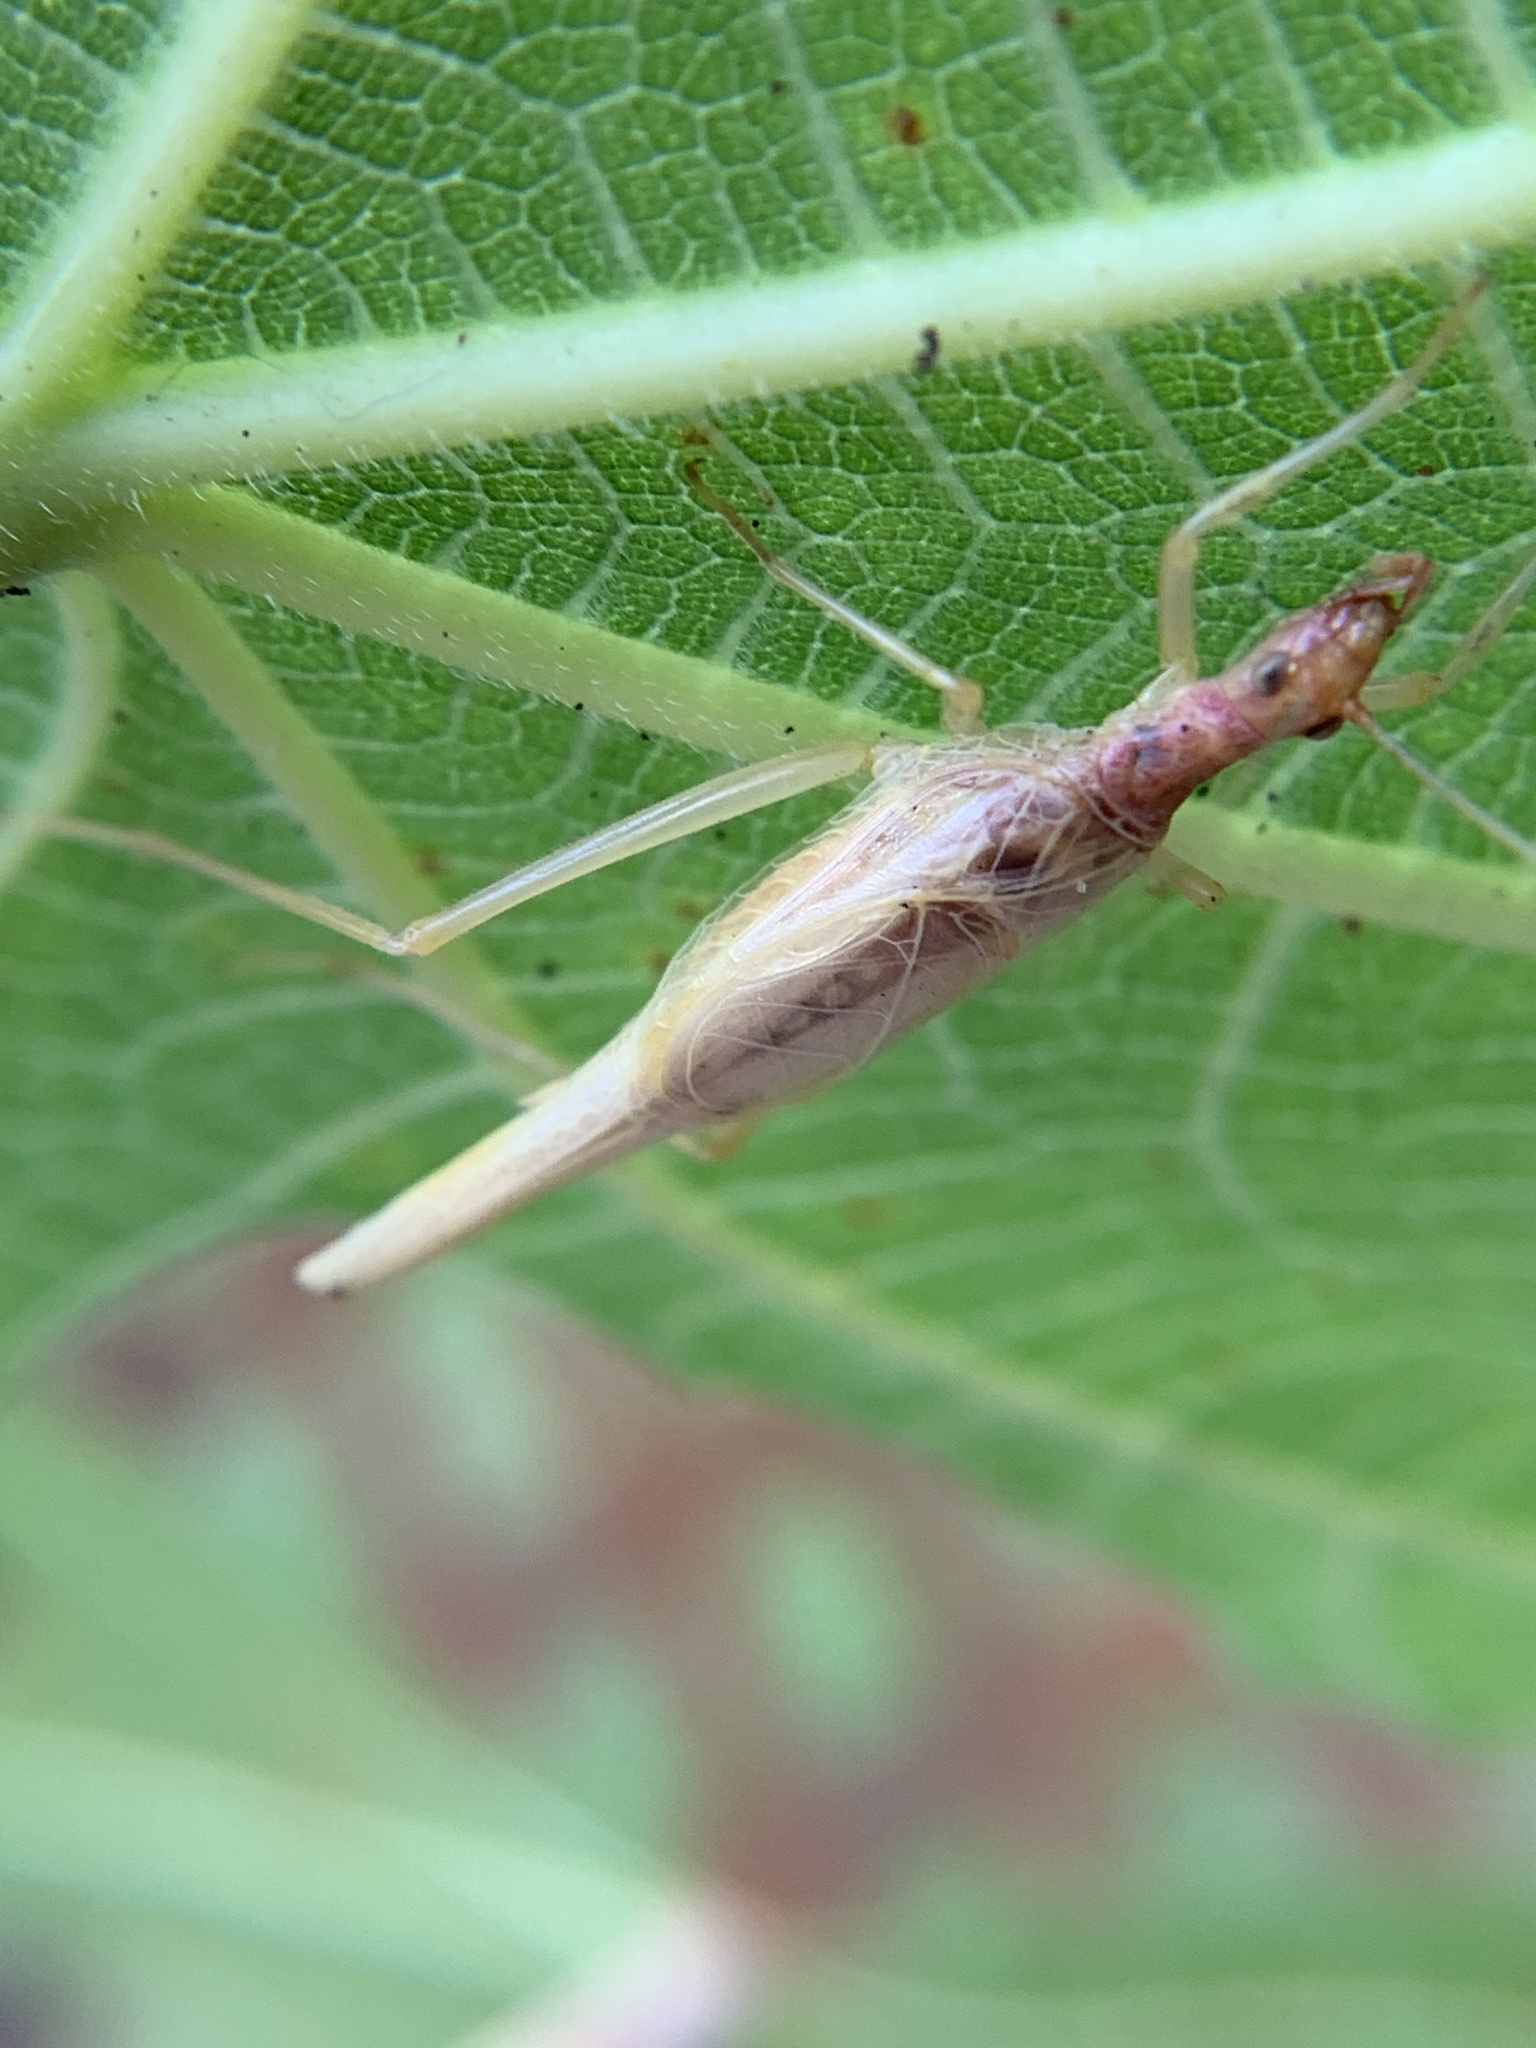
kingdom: Animalia
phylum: Arthropoda
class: Insecta
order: Orthoptera
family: Gryllidae
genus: Neoxabea
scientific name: Neoxabea bipunctata
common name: Two-spotted tree cricket
